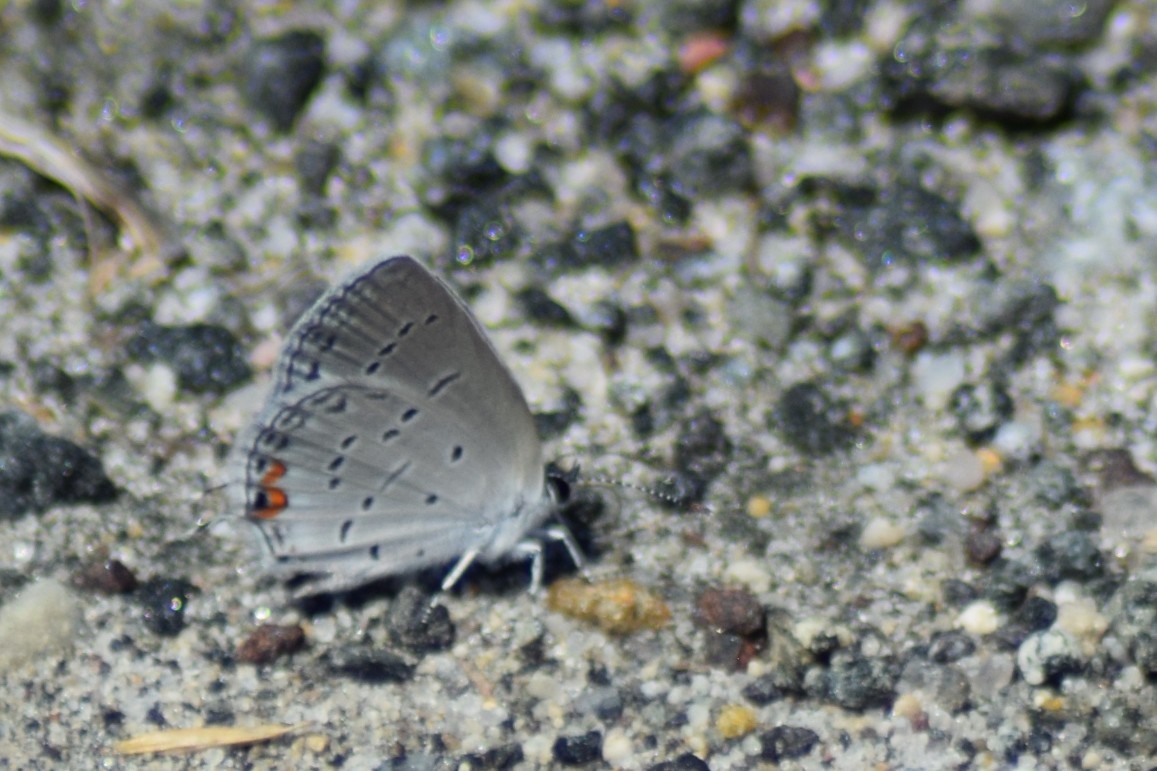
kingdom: Animalia
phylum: Arthropoda
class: Insecta
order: Lepidoptera
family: Lycaenidae
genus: Elkalyce
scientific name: Elkalyce comyntas
